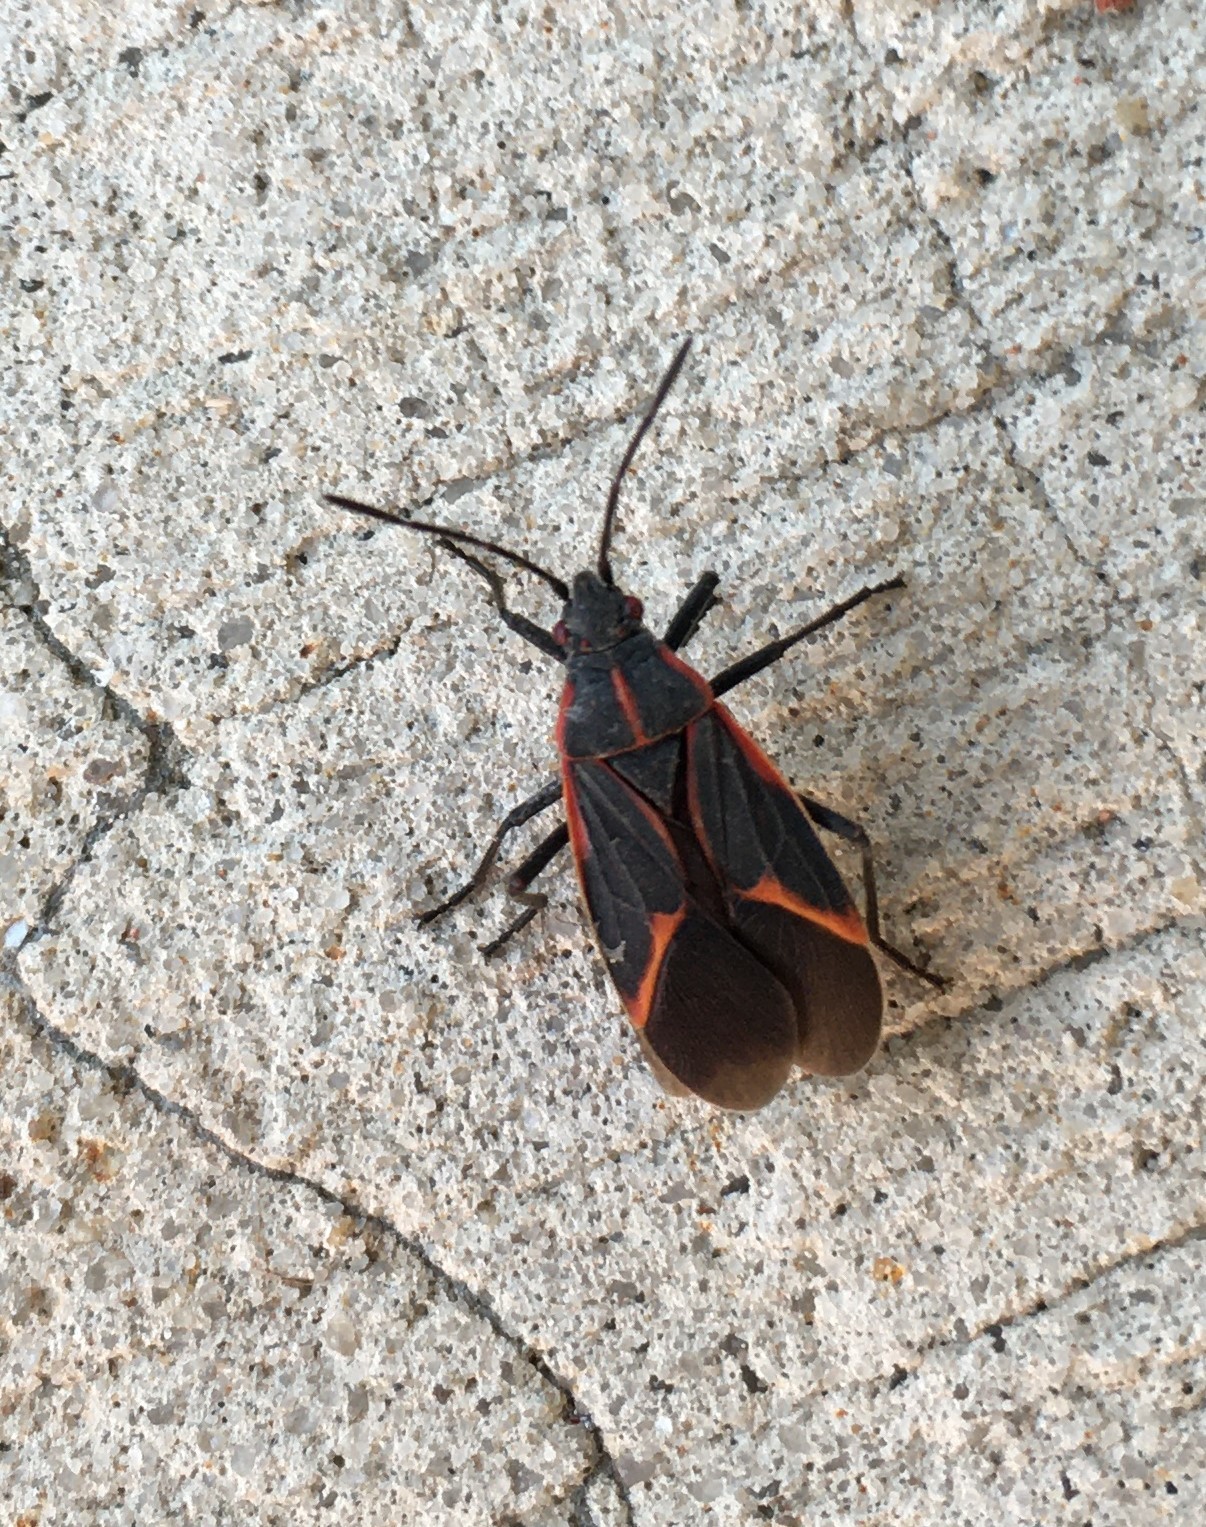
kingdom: Animalia
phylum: Arthropoda
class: Insecta
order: Hemiptera
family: Rhopalidae
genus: Boisea
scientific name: Boisea trivittata
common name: Boxelder bug
